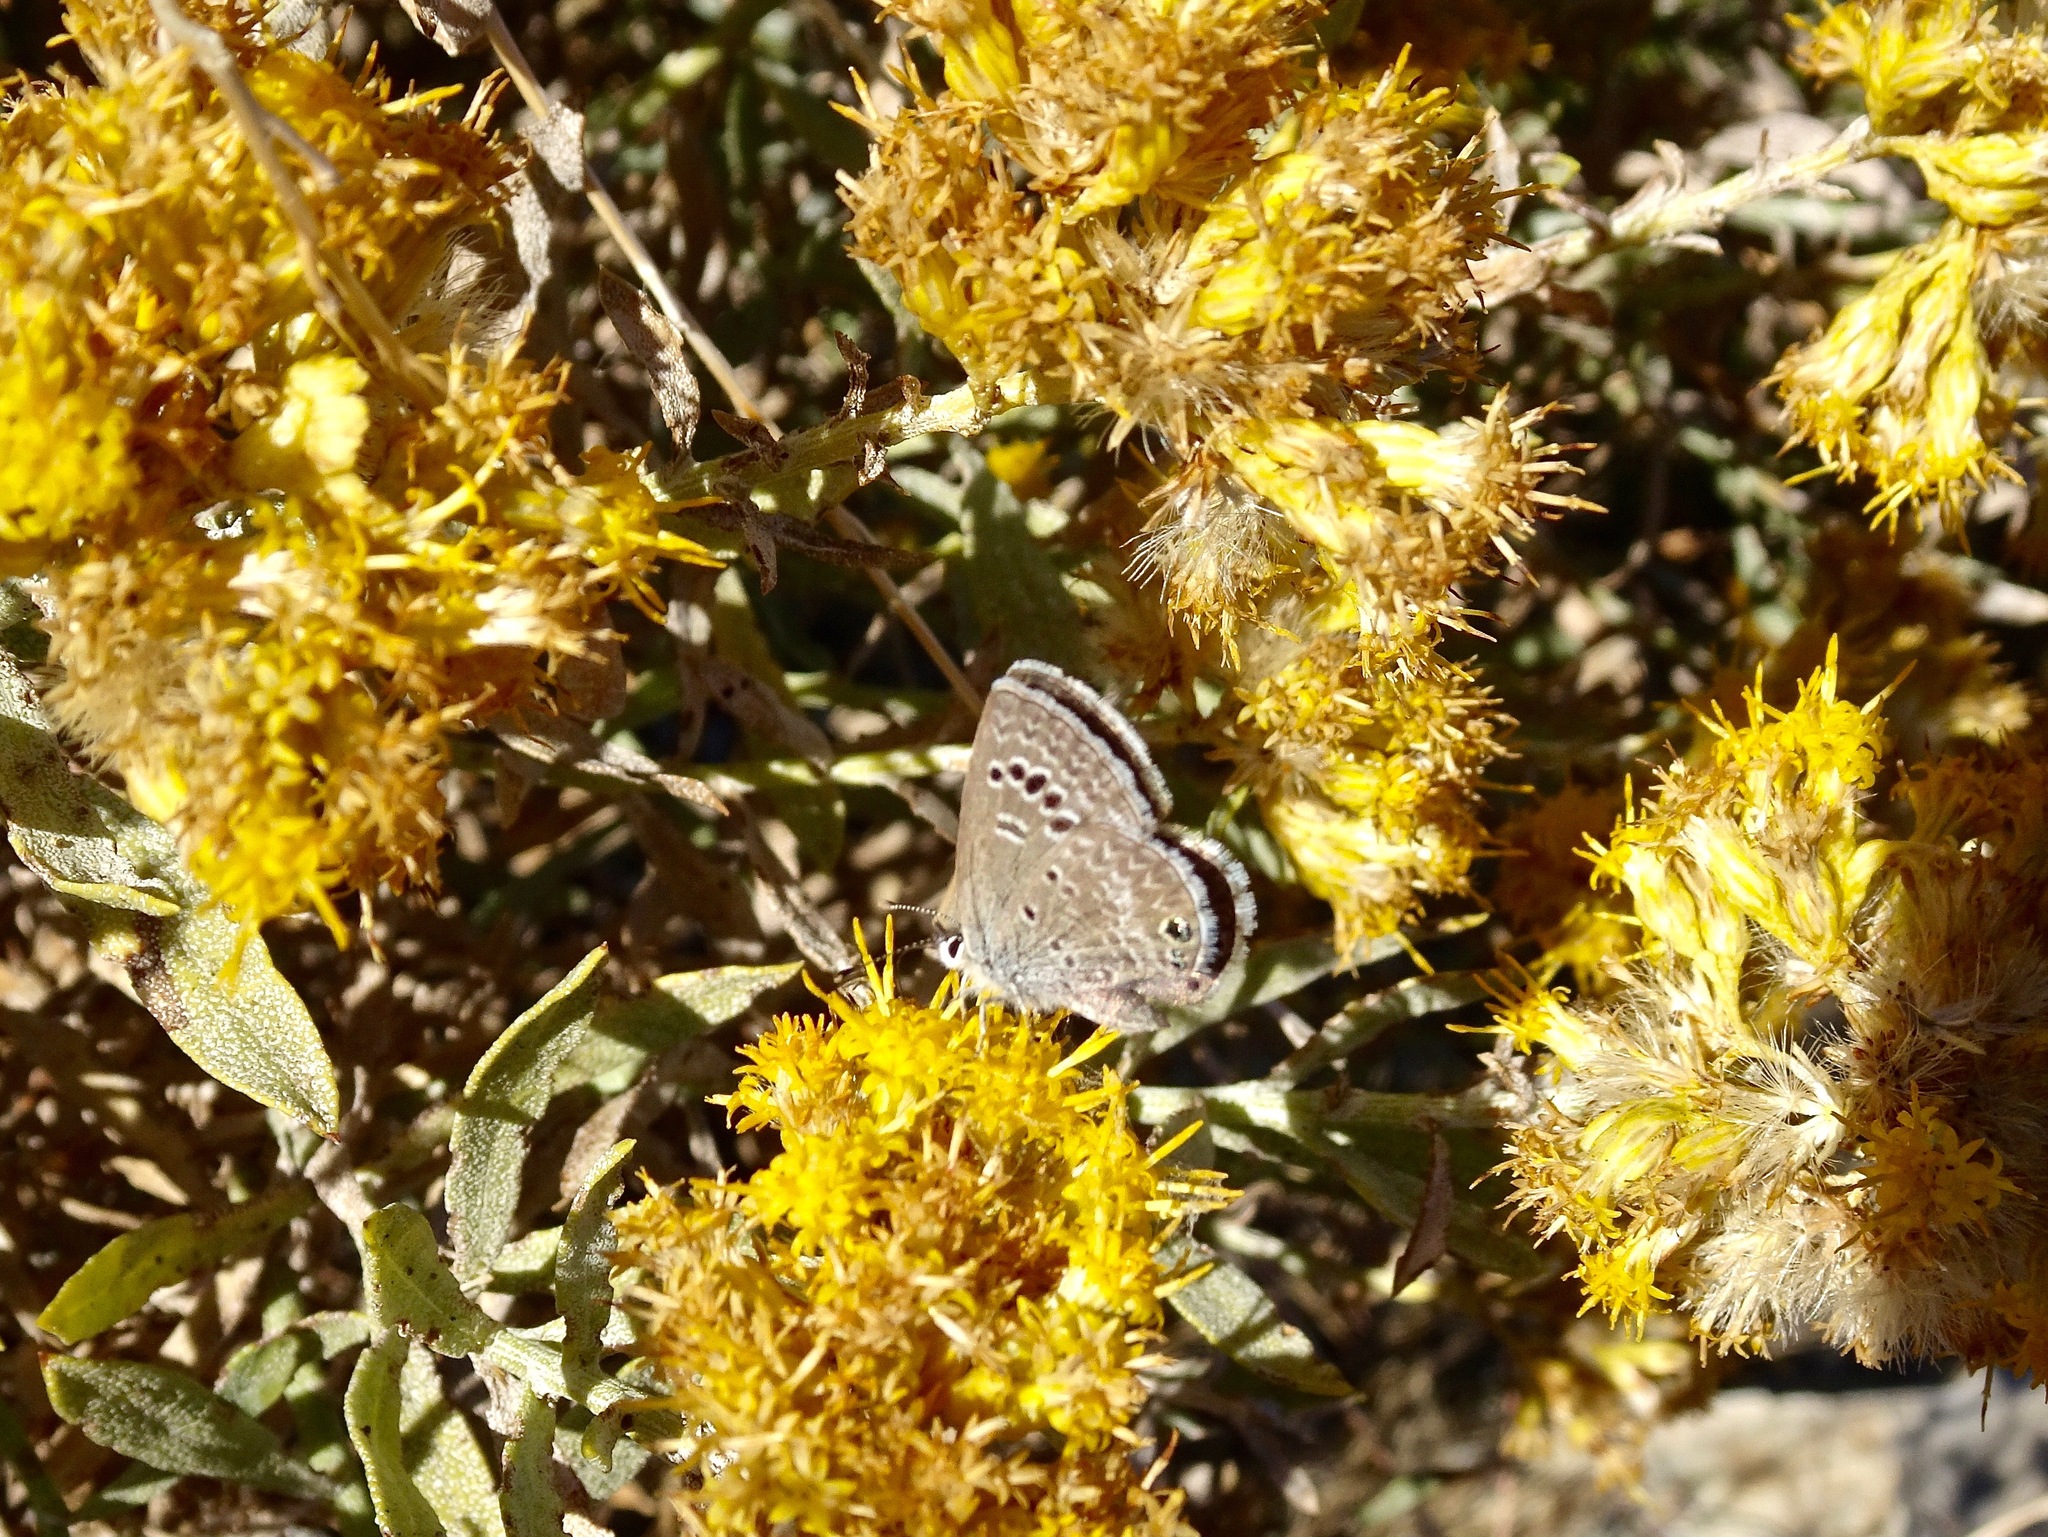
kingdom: Animalia
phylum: Arthropoda
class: Insecta
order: Lepidoptera
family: Lycaenidae
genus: Echinargus
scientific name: Echinargus isola
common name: Reakirt's blue
